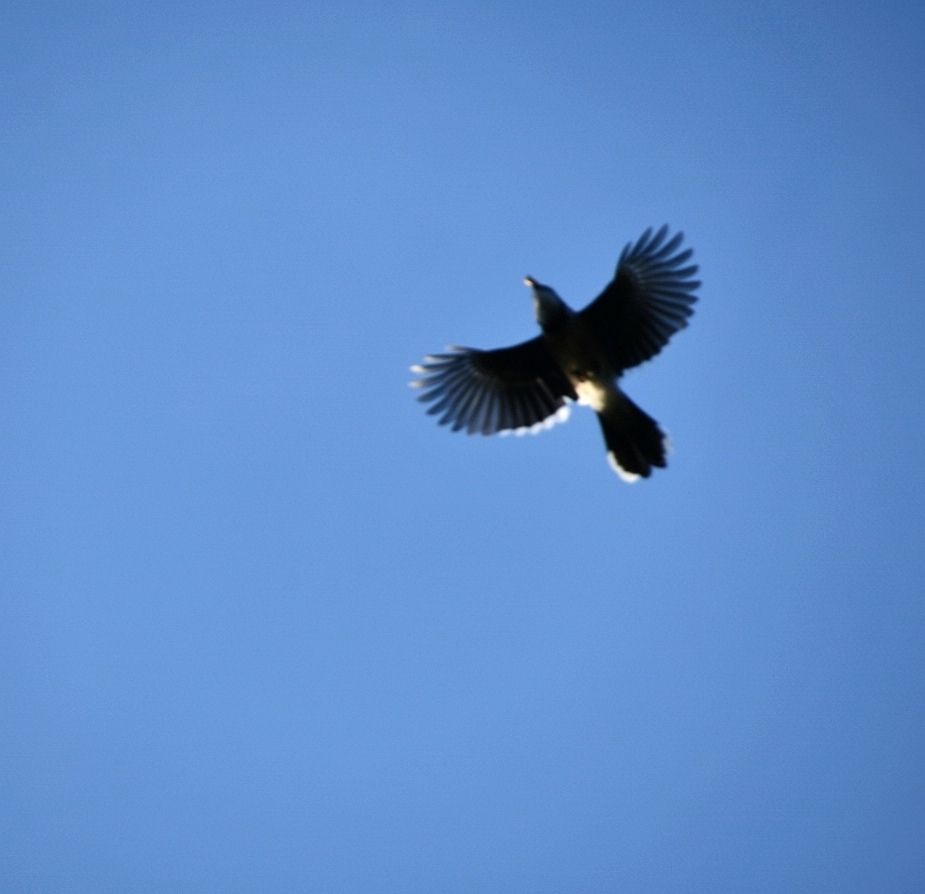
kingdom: Animalia
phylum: Chordata
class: Aves
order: Passeriformes
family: Corvidae
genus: Cyanocitta
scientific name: Cyanocitta cristata
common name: Blue jay
